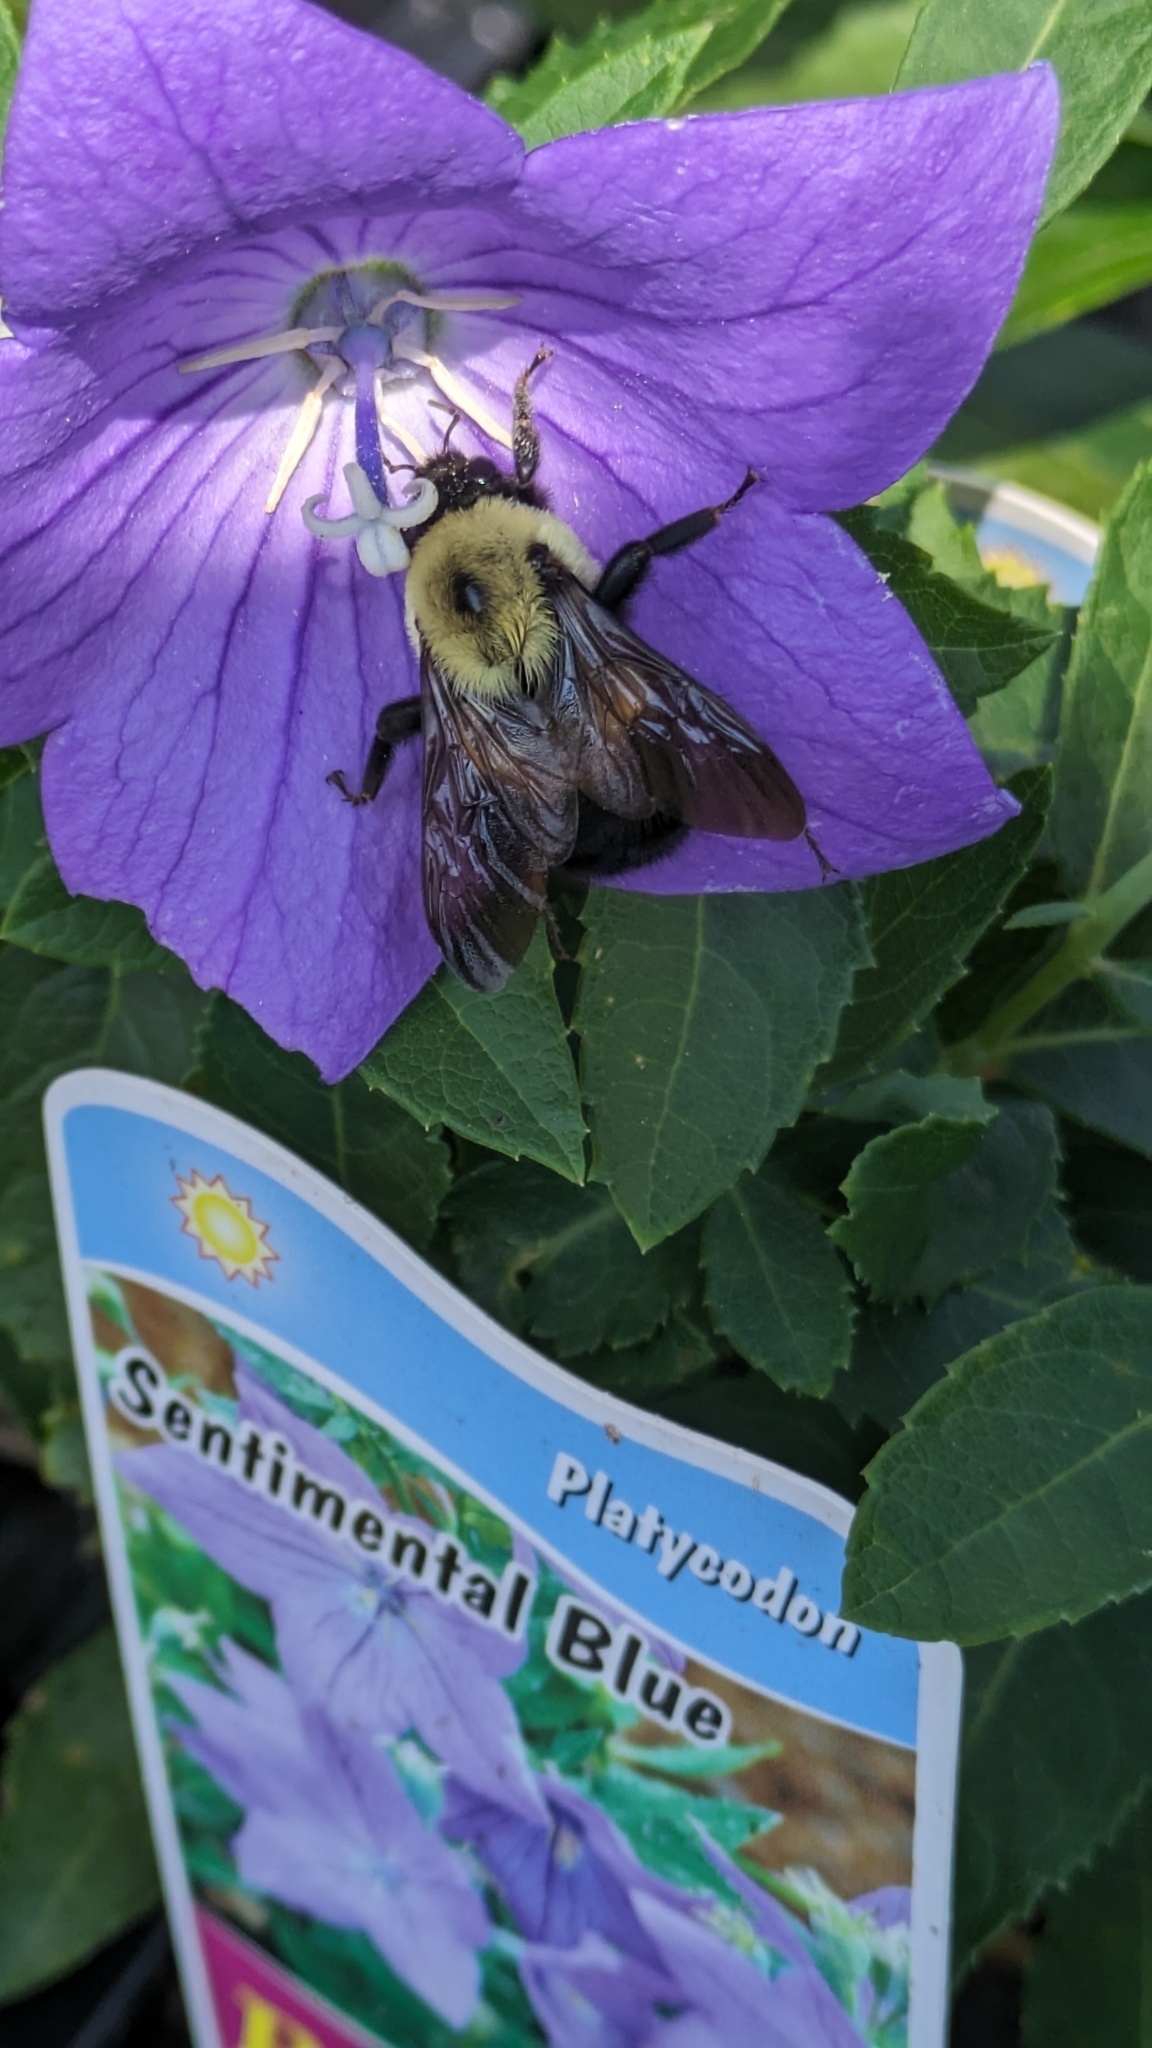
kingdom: Animalia
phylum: Arthropoda
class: Insecta
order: Hymenoptera
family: Apidae
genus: Bombus
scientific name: Bombus griseocollis
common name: Brown-belted bumble bee
